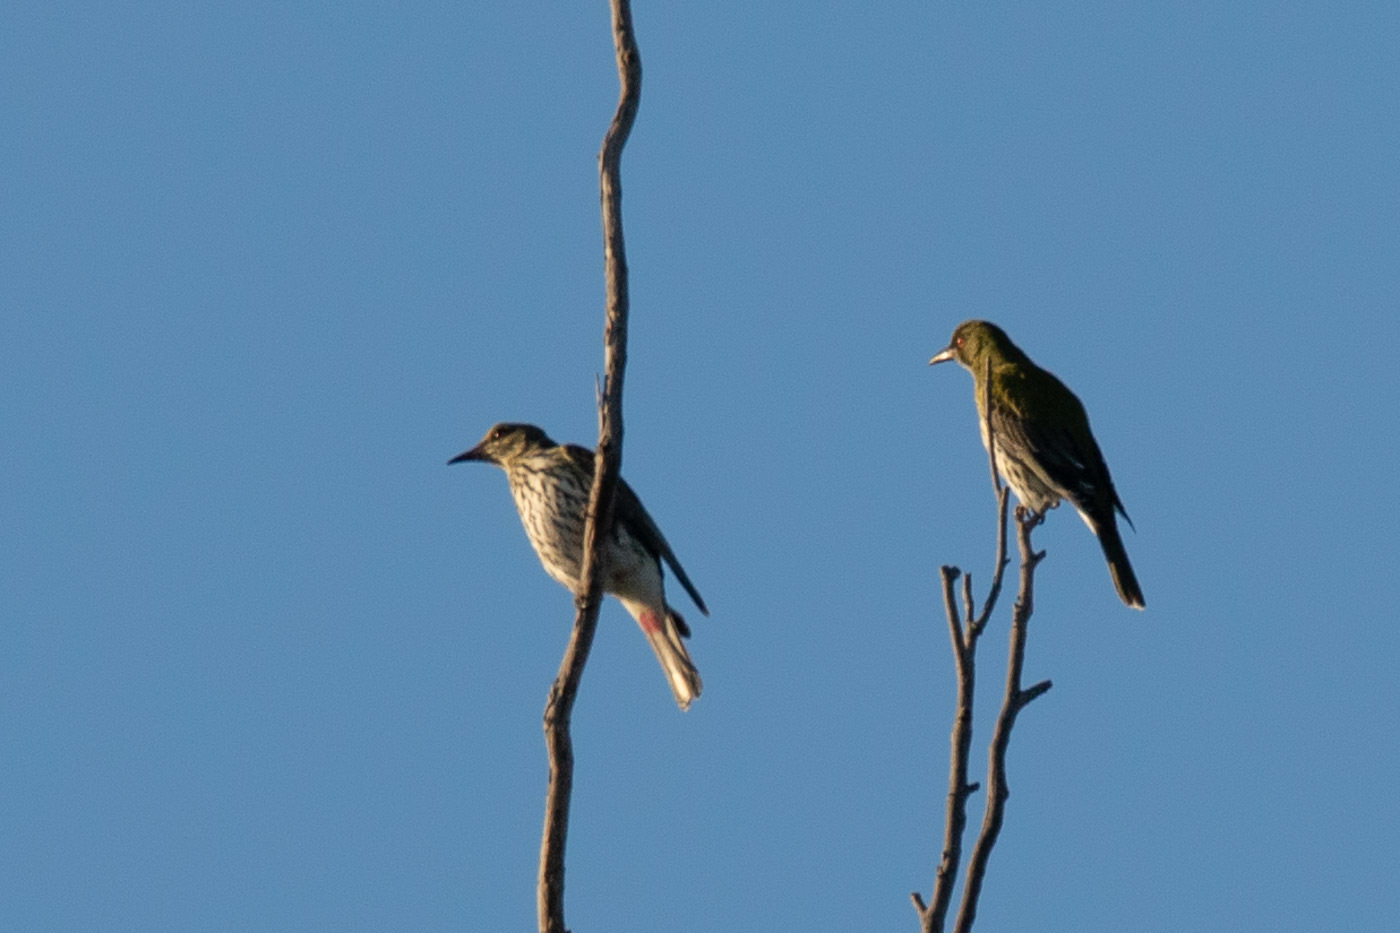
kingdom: Animalia
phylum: Chordata
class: Aves
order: Passeriformes
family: Oriolidae
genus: Oriolus
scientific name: Oriolus sagittatus
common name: Olive-backed oriole
